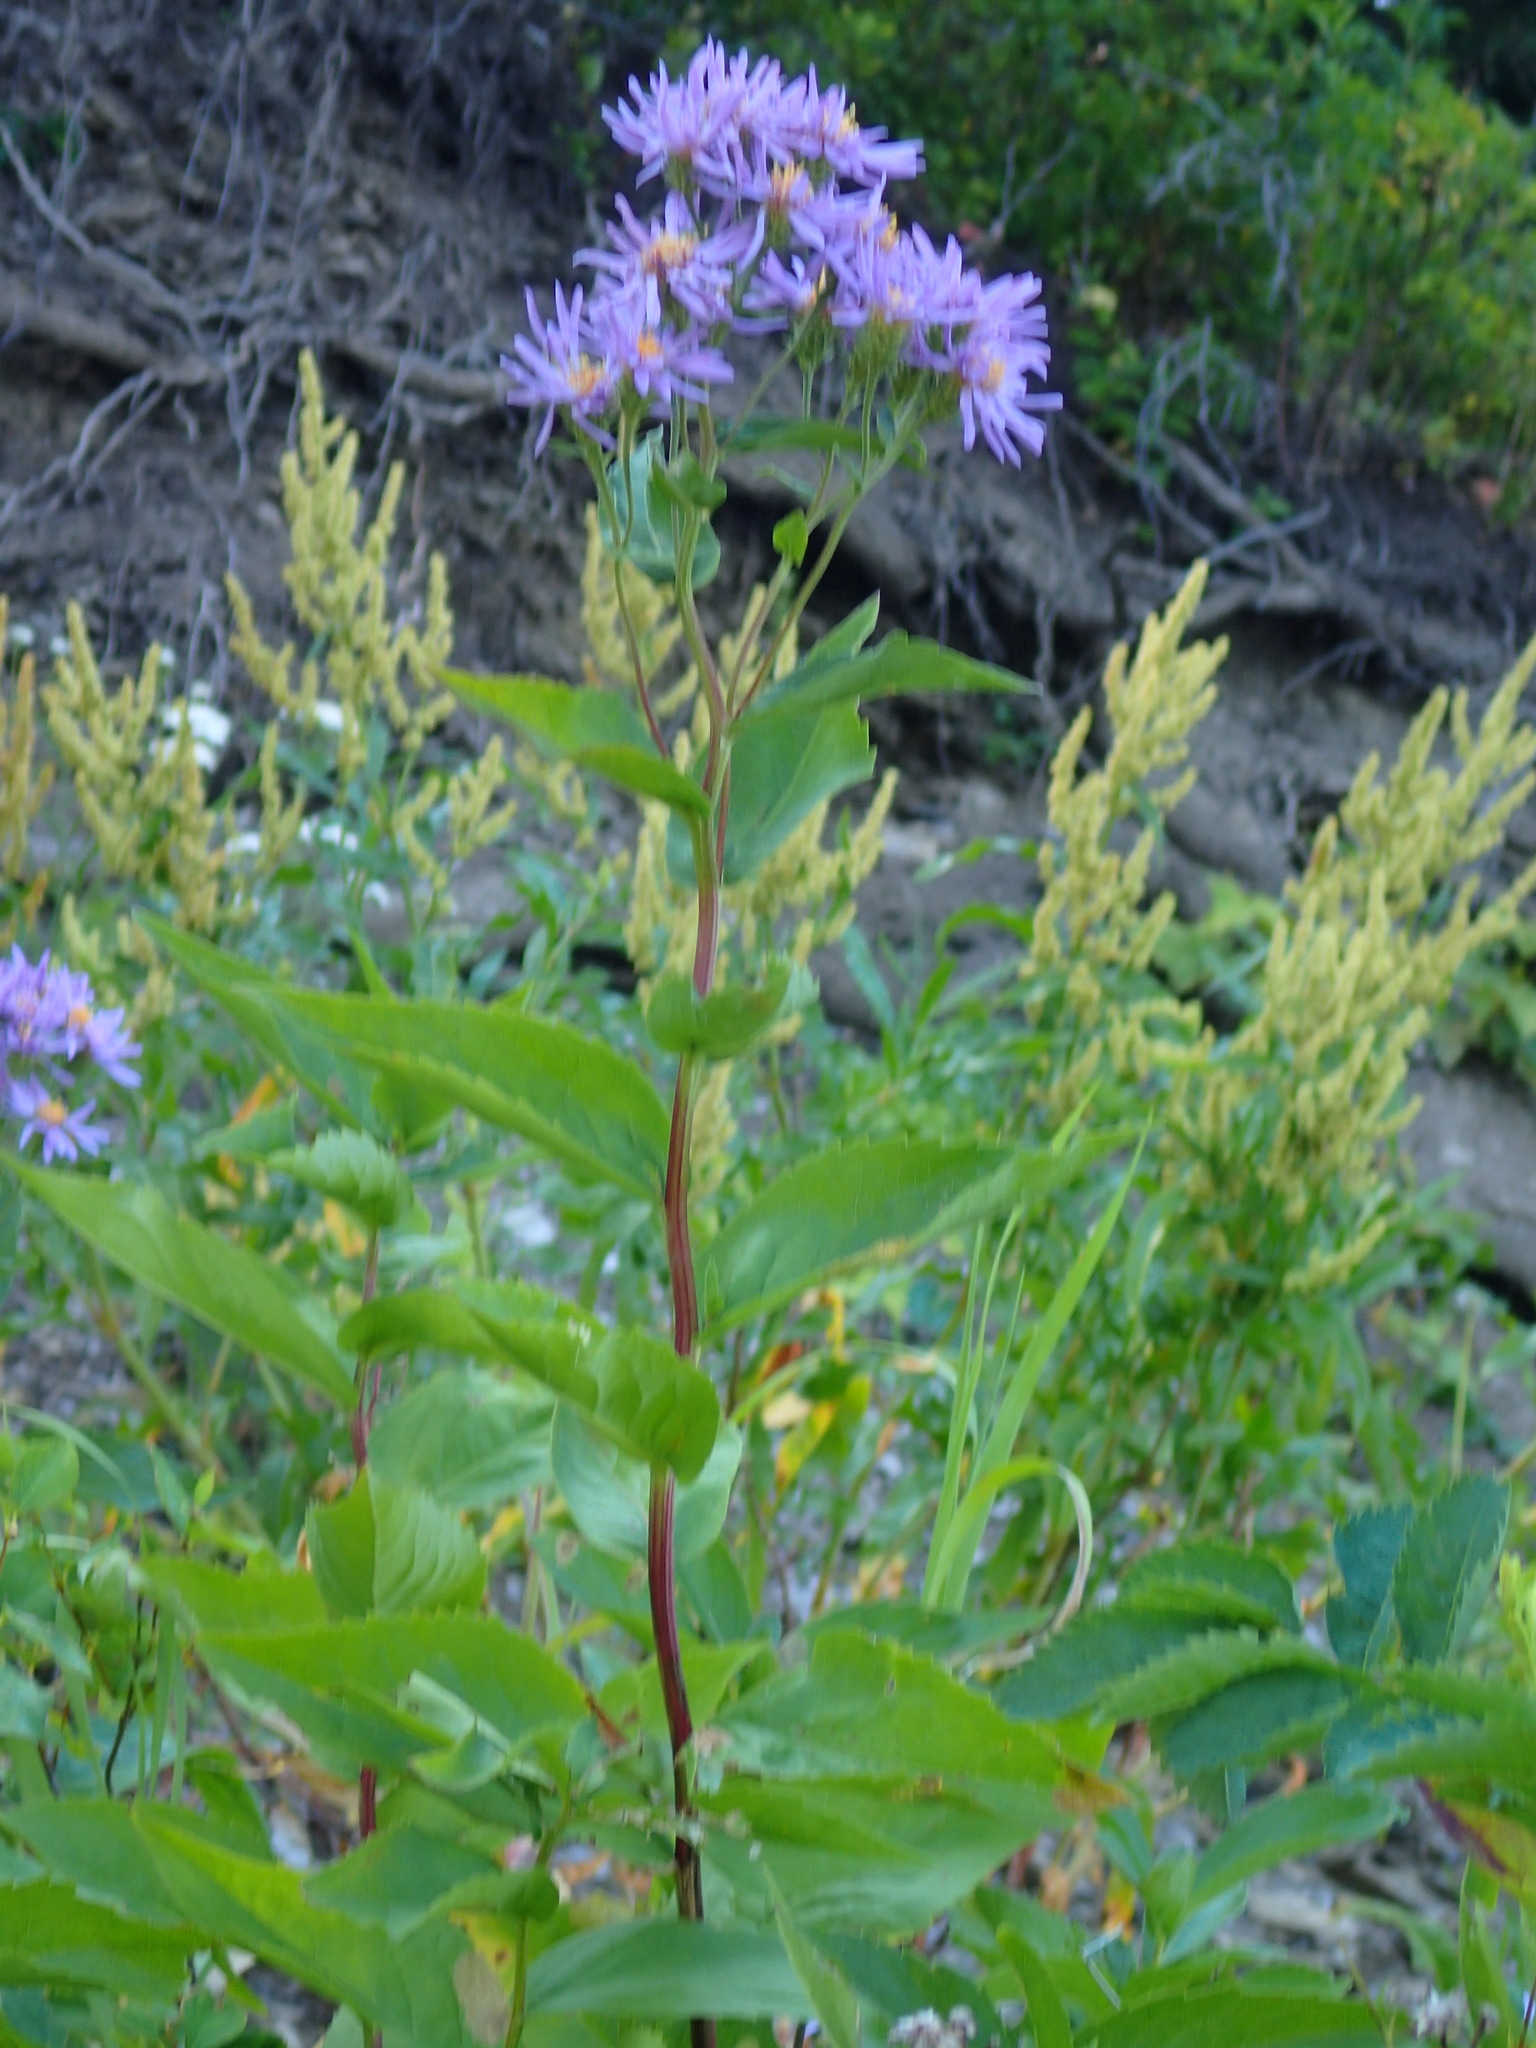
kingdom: Plantae
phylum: Tracheophyta
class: Magnoliopsida
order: Asterales
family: Asteraceae
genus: Eurybia
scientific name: Eurybia conspicua
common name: Showy aster
